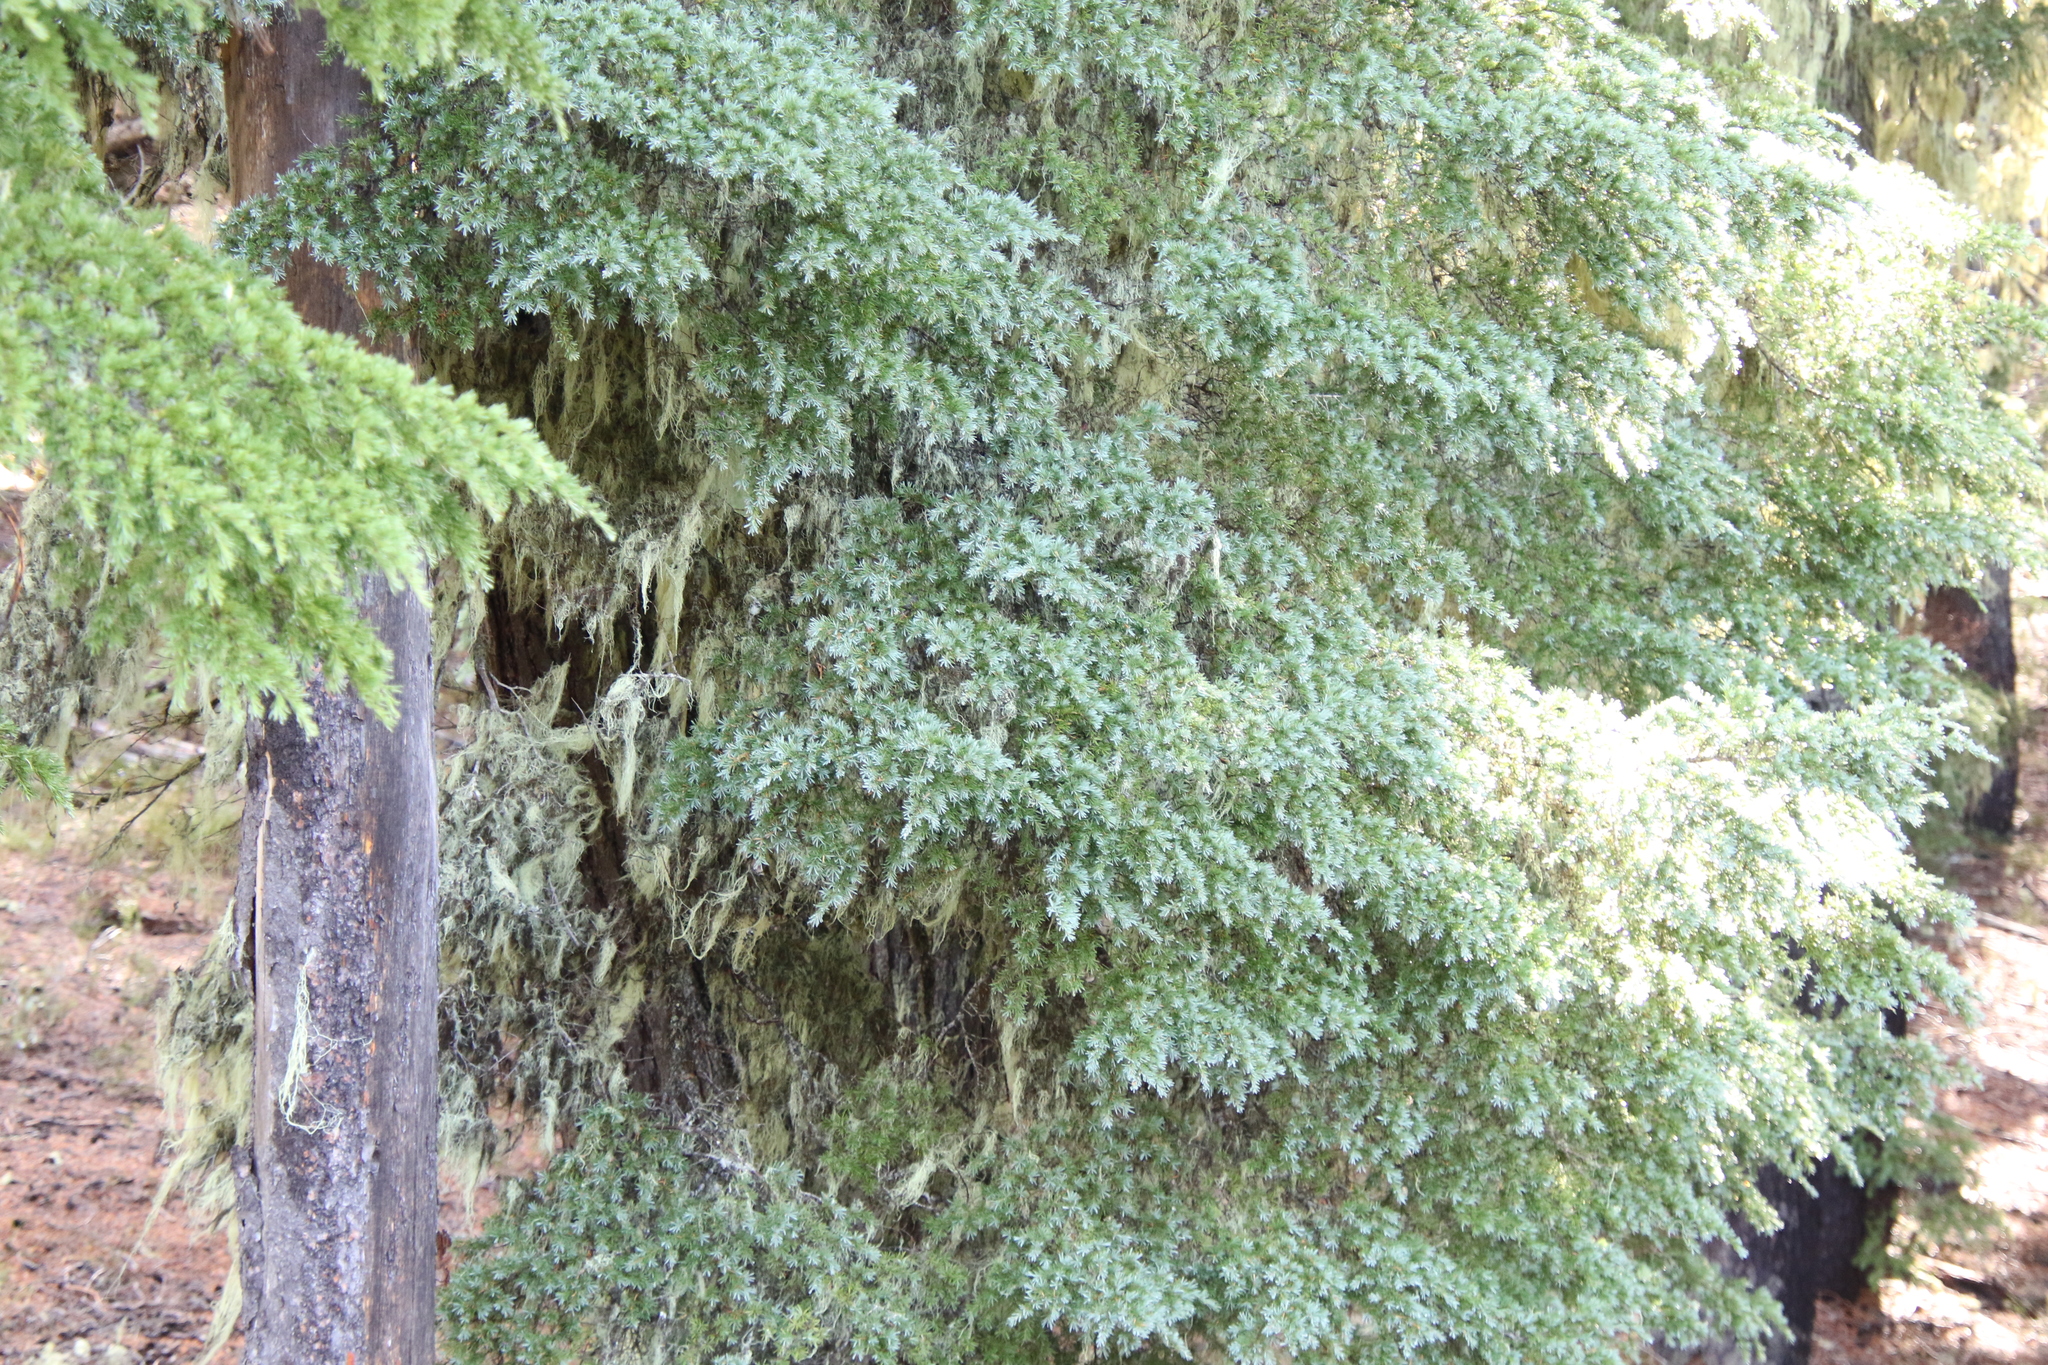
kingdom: Plantae
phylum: Tracheophyta
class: Pinopsida
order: Pinales
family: Pinaceae
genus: Tsuga
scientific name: Tsuga mertensiana
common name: Mountain hemlock
